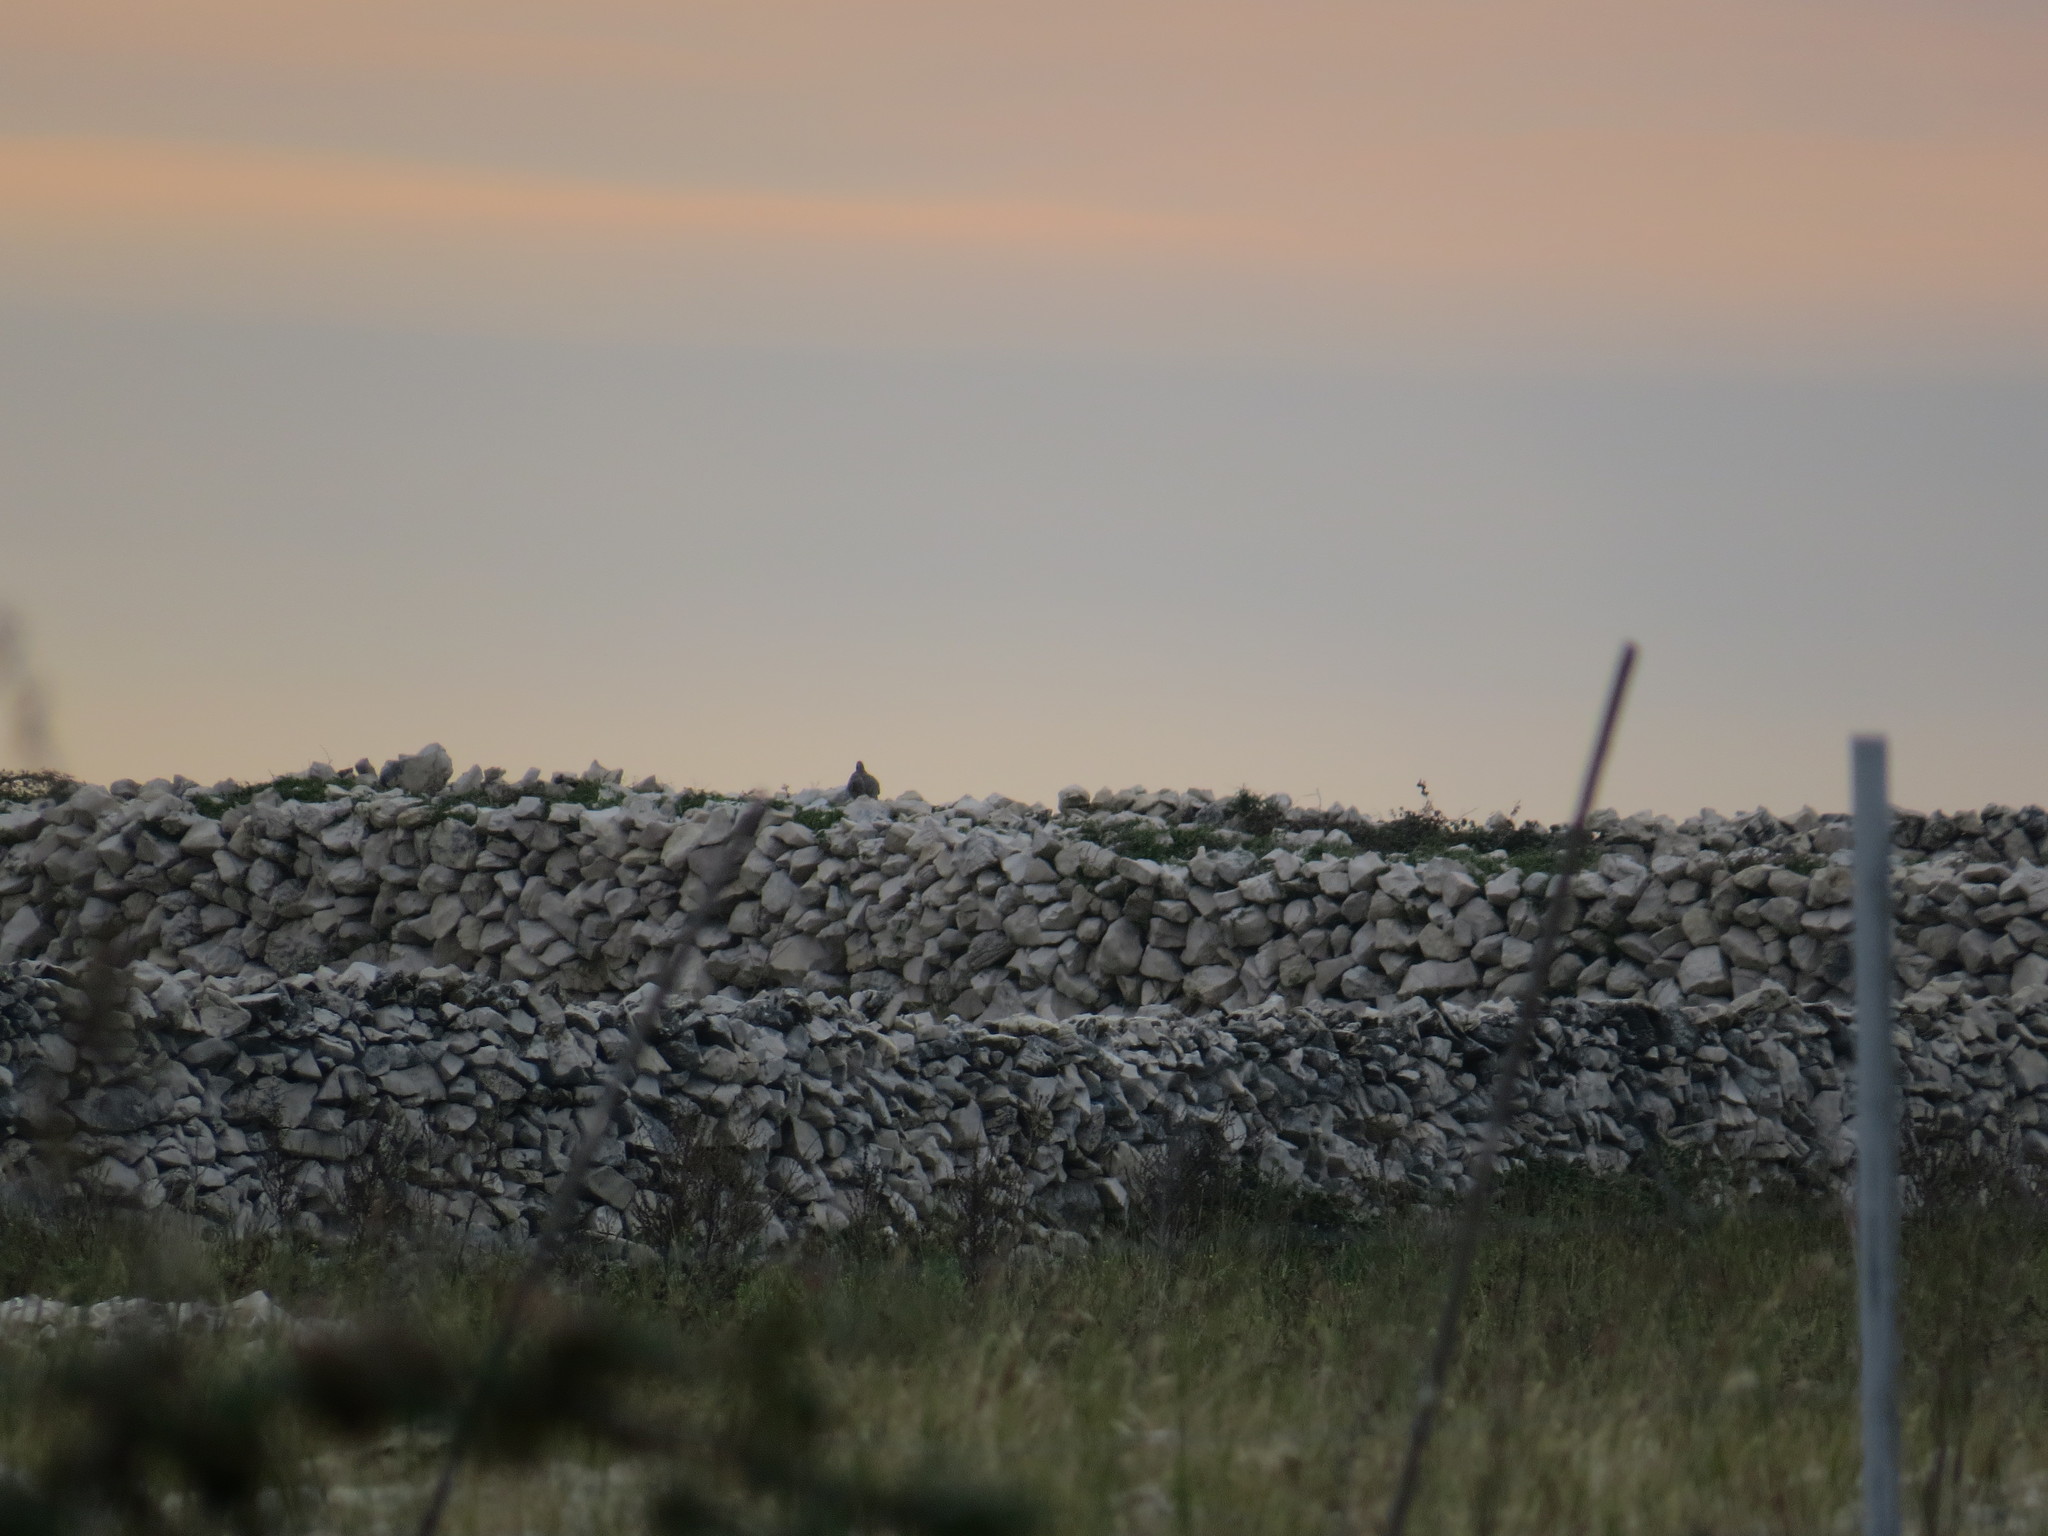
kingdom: Animalia
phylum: Chordata
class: Aves
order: Galliformes
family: Phasianidae
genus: Alectoris
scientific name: Alectoris graeca
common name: Rock partridge
